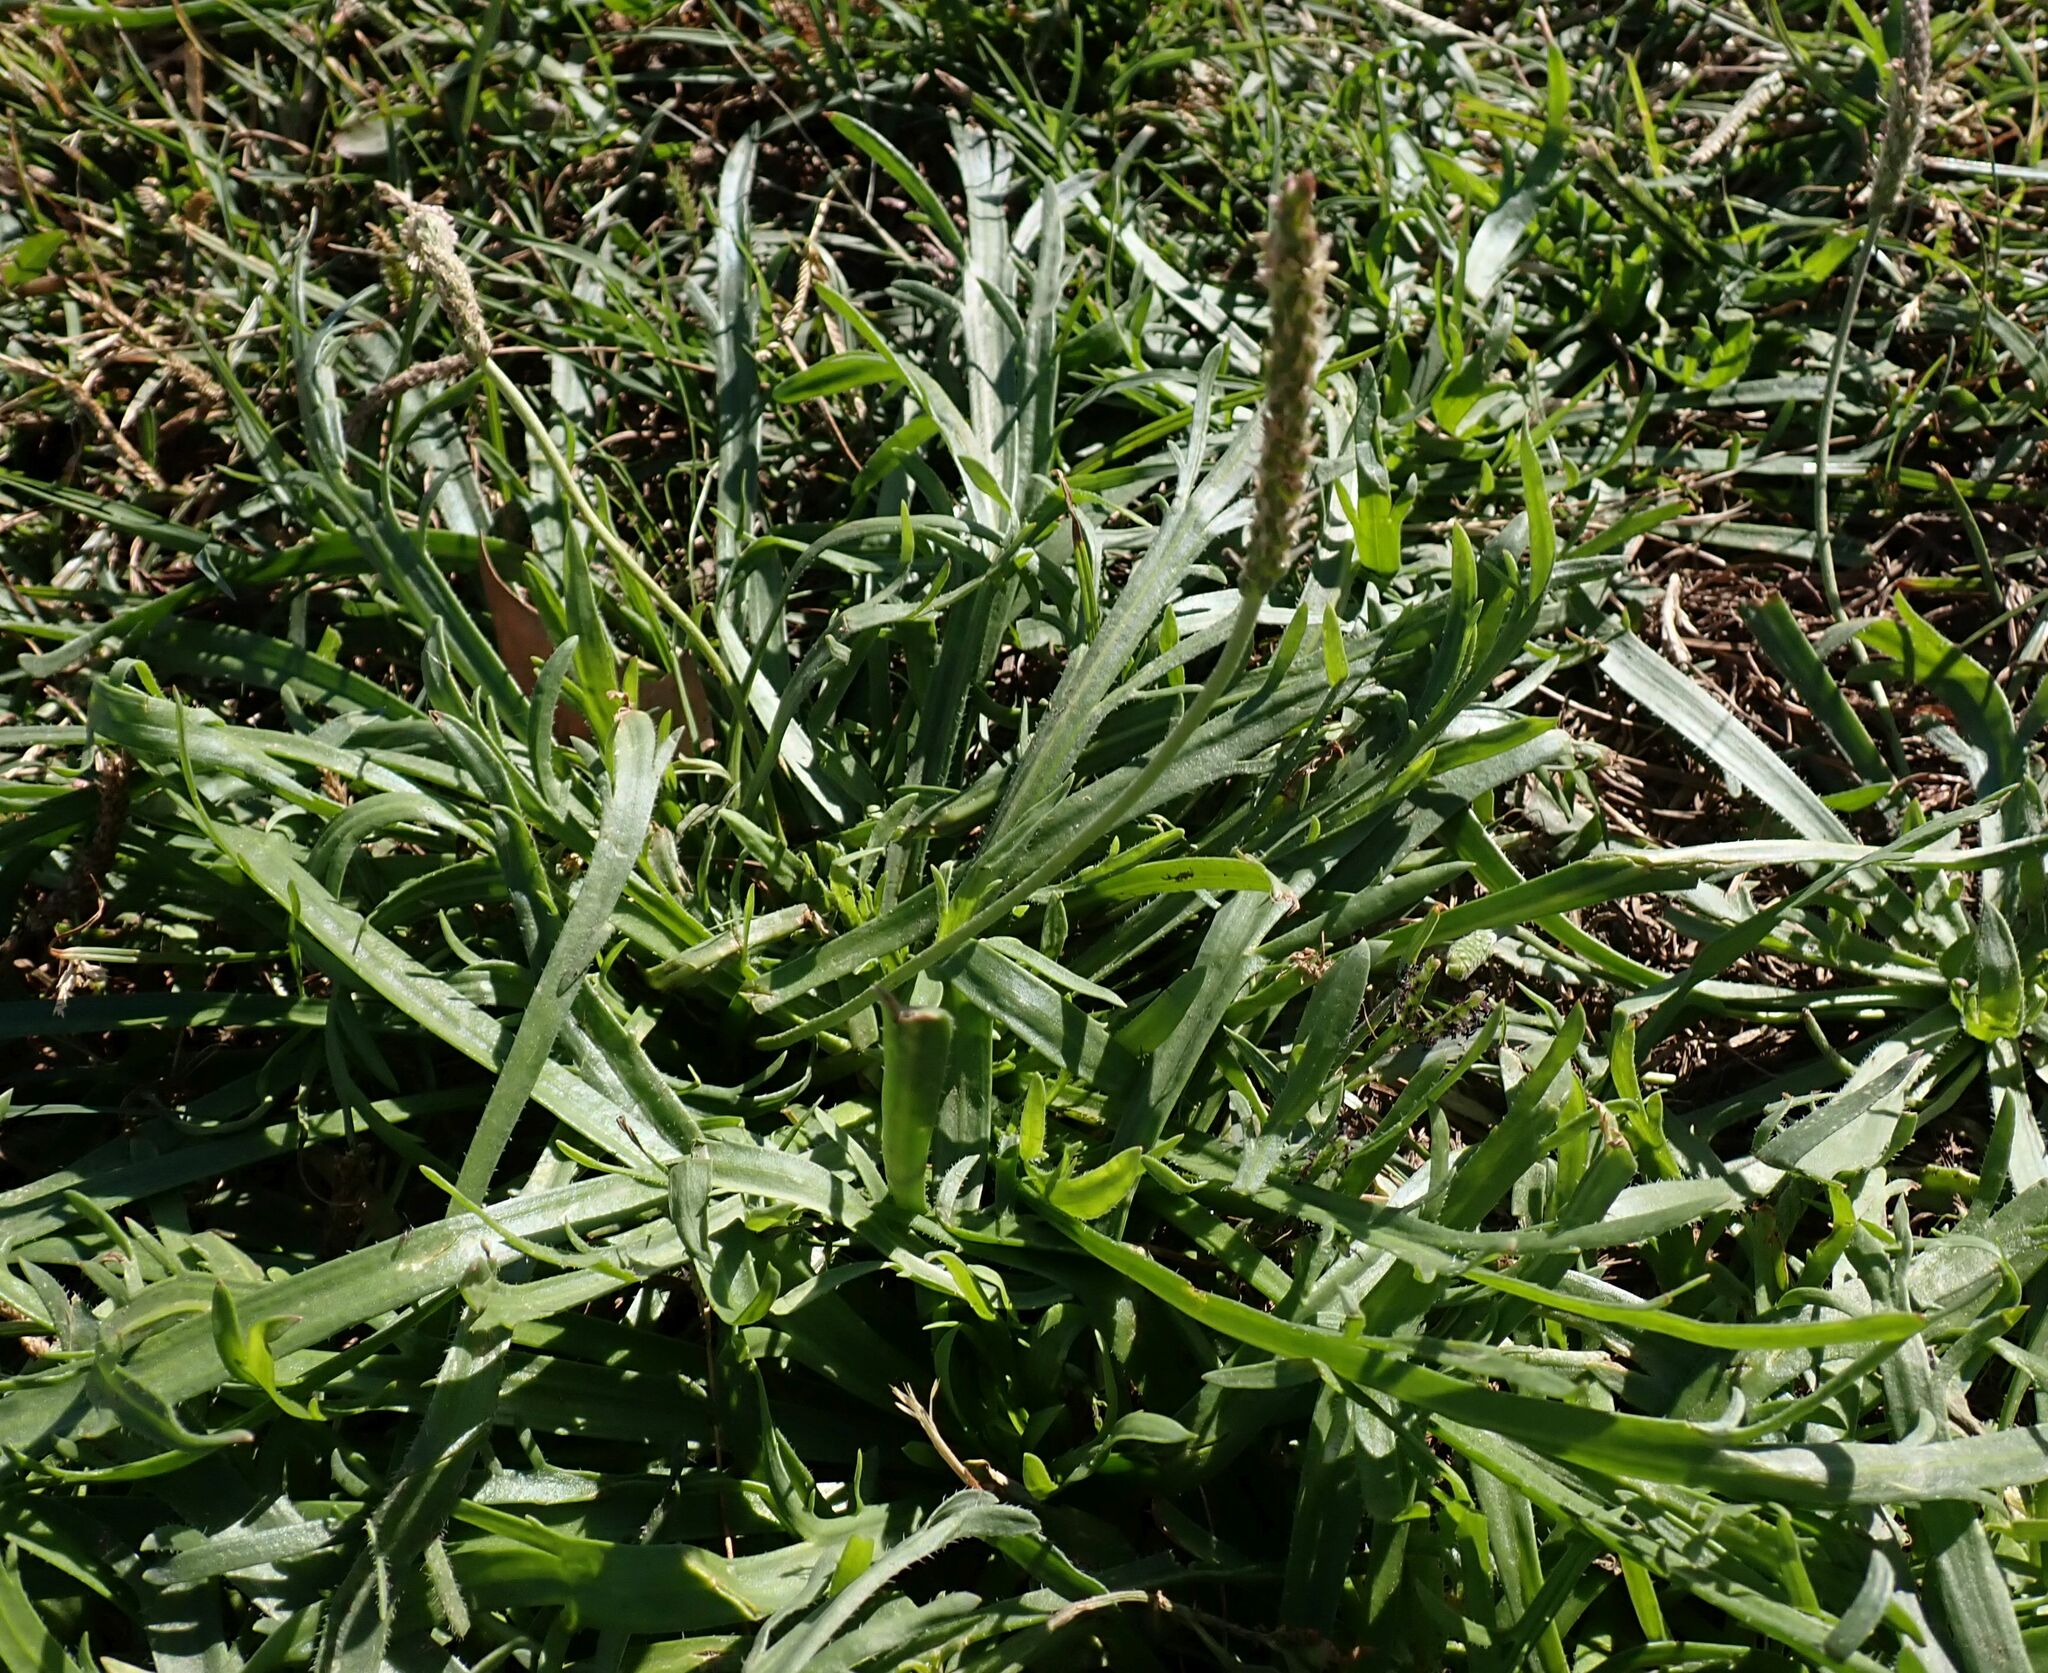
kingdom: Plantae
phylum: Tracheophyta
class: Magnoliopsida
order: Lamiales
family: Plantaginaceae
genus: Plantago
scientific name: Plantago coronopus
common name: Buck's-horn plantain
